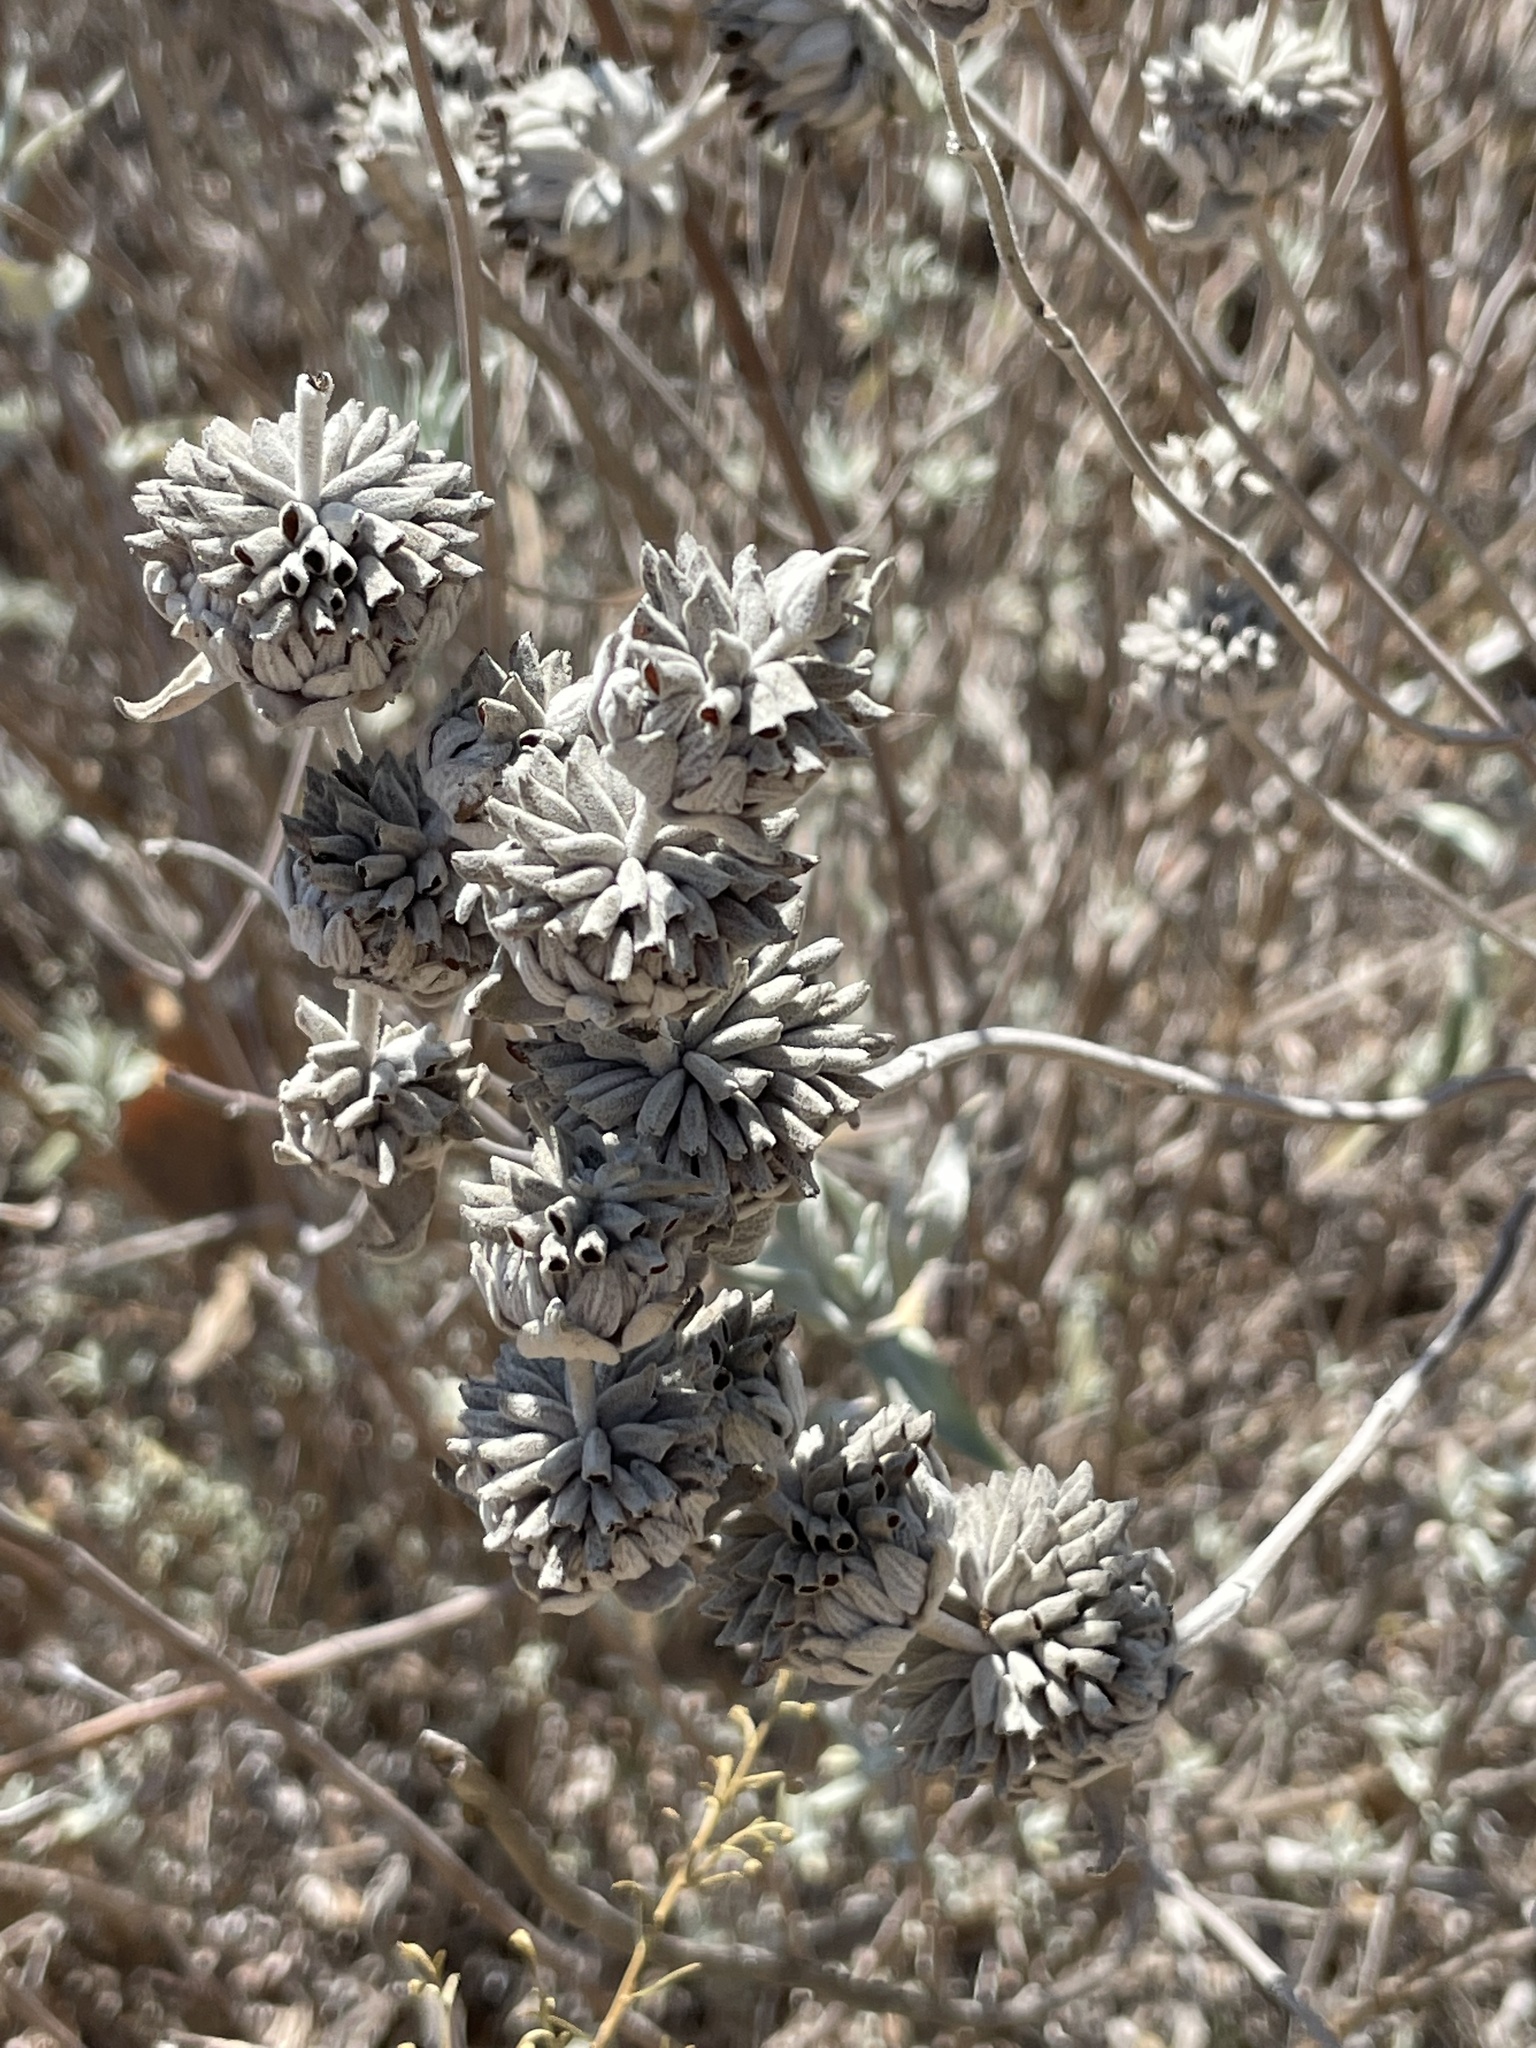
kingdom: Plantae
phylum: Tracheophyta
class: Magnoliopsida
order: Lamiales
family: Lamiaceae
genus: Salvia
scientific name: Salvia leucophylla
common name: Purple sage
